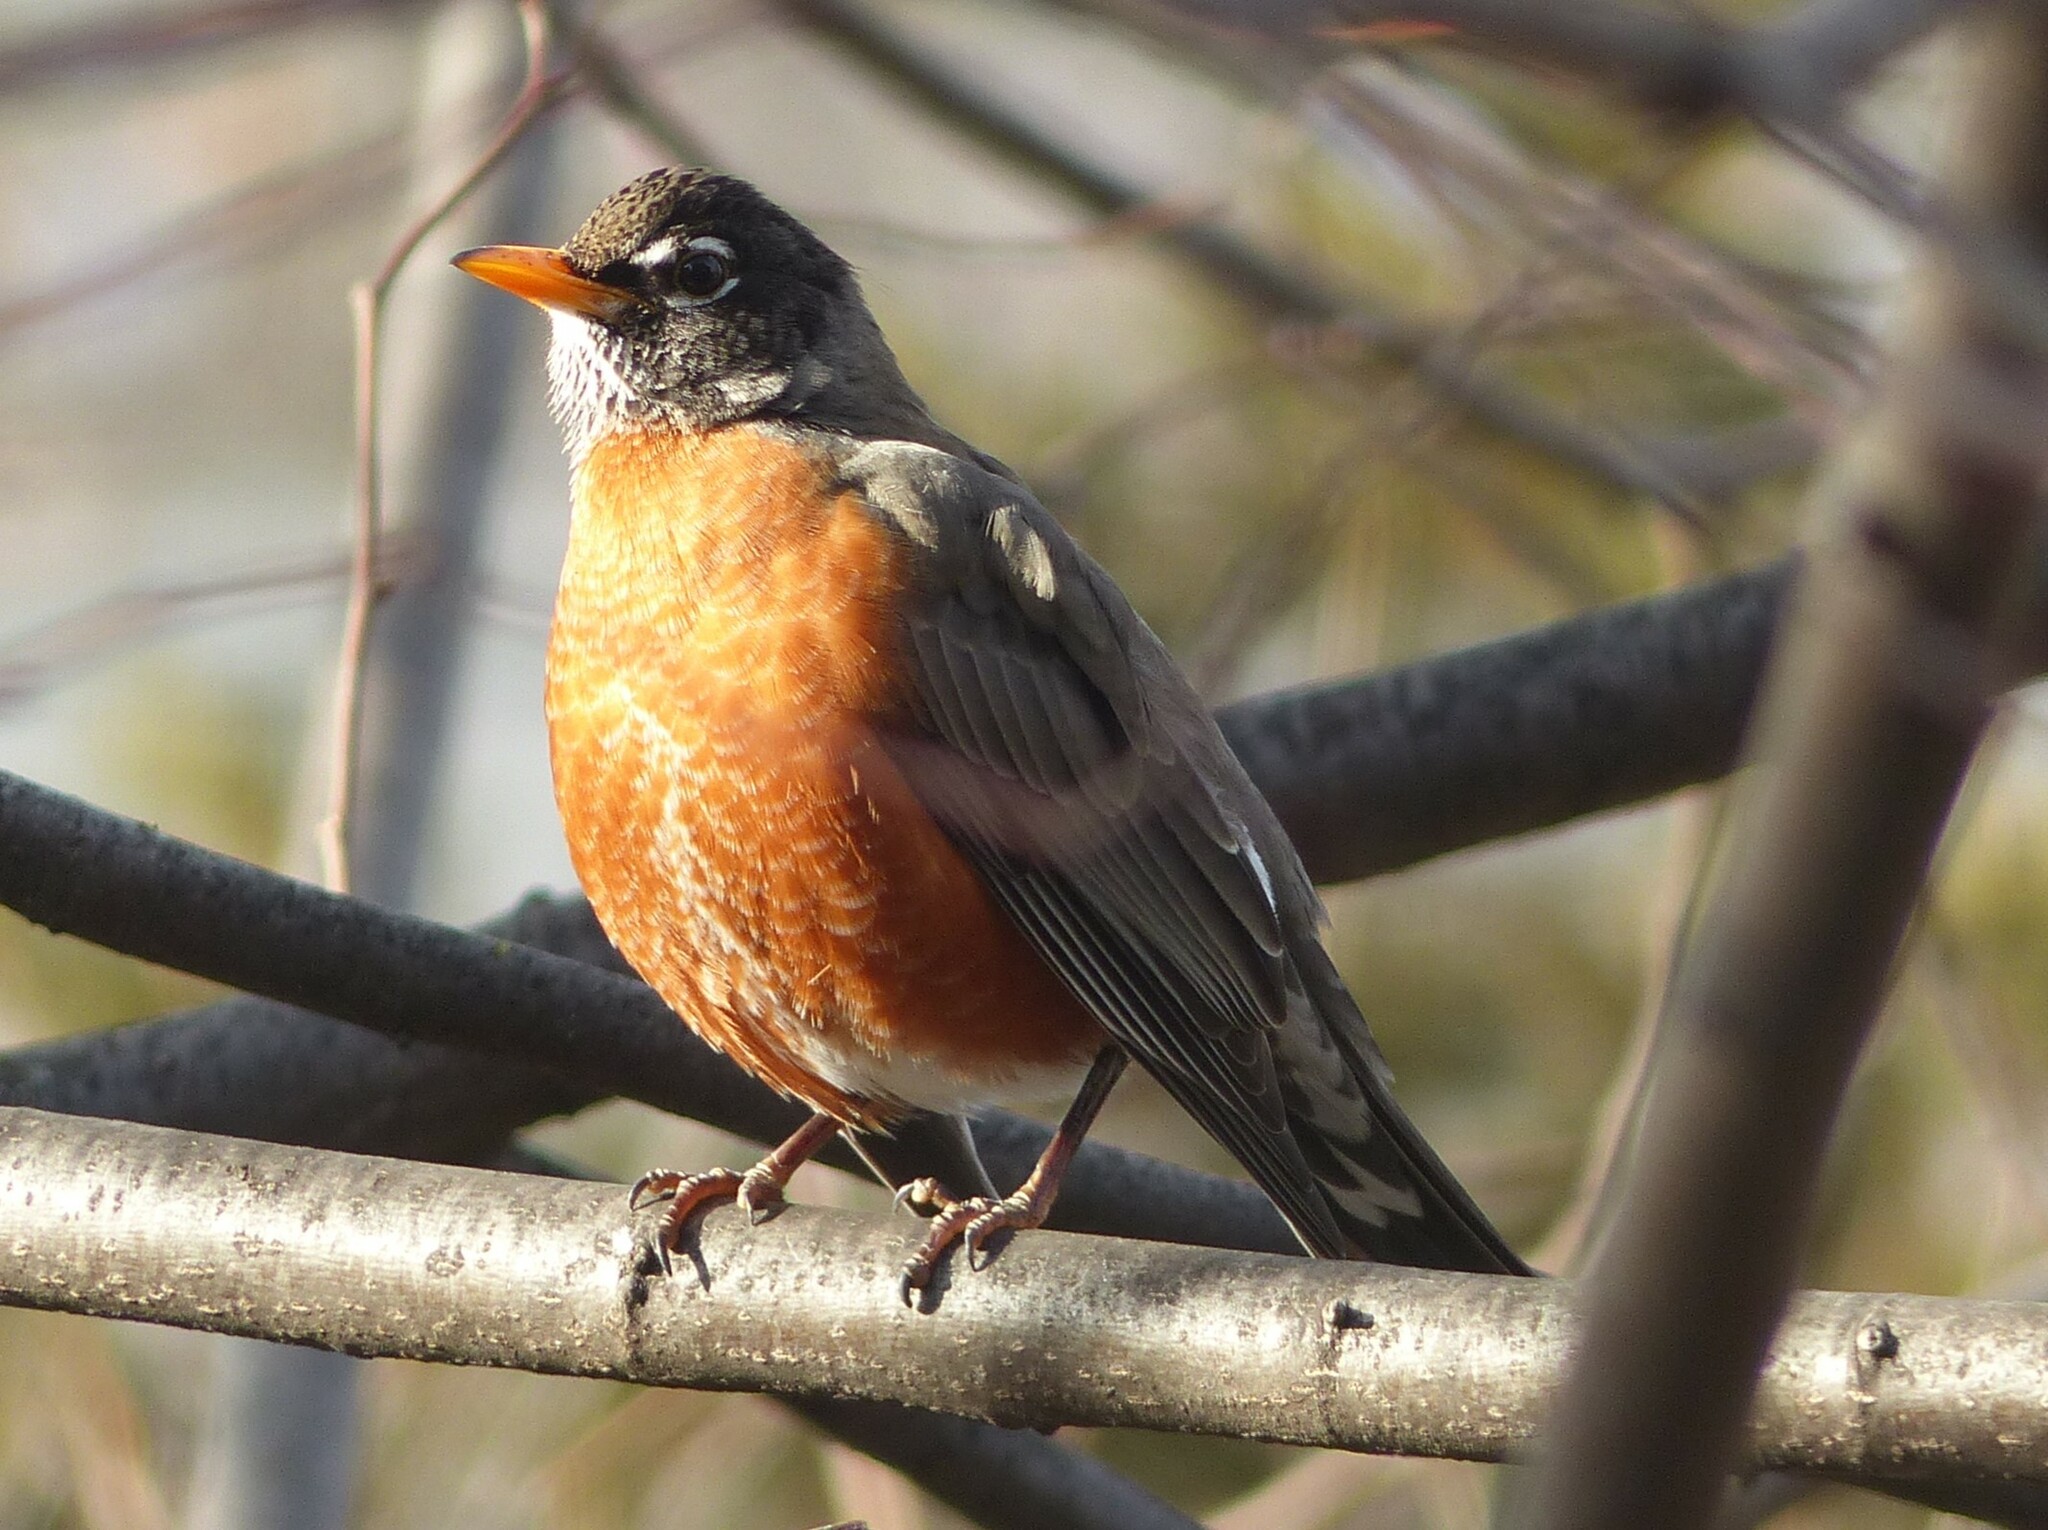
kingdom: Animalia
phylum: Chordata
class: Aves
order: Passeriformes
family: Turdidae
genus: Turdus
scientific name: Turdus migratorius
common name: American robin
